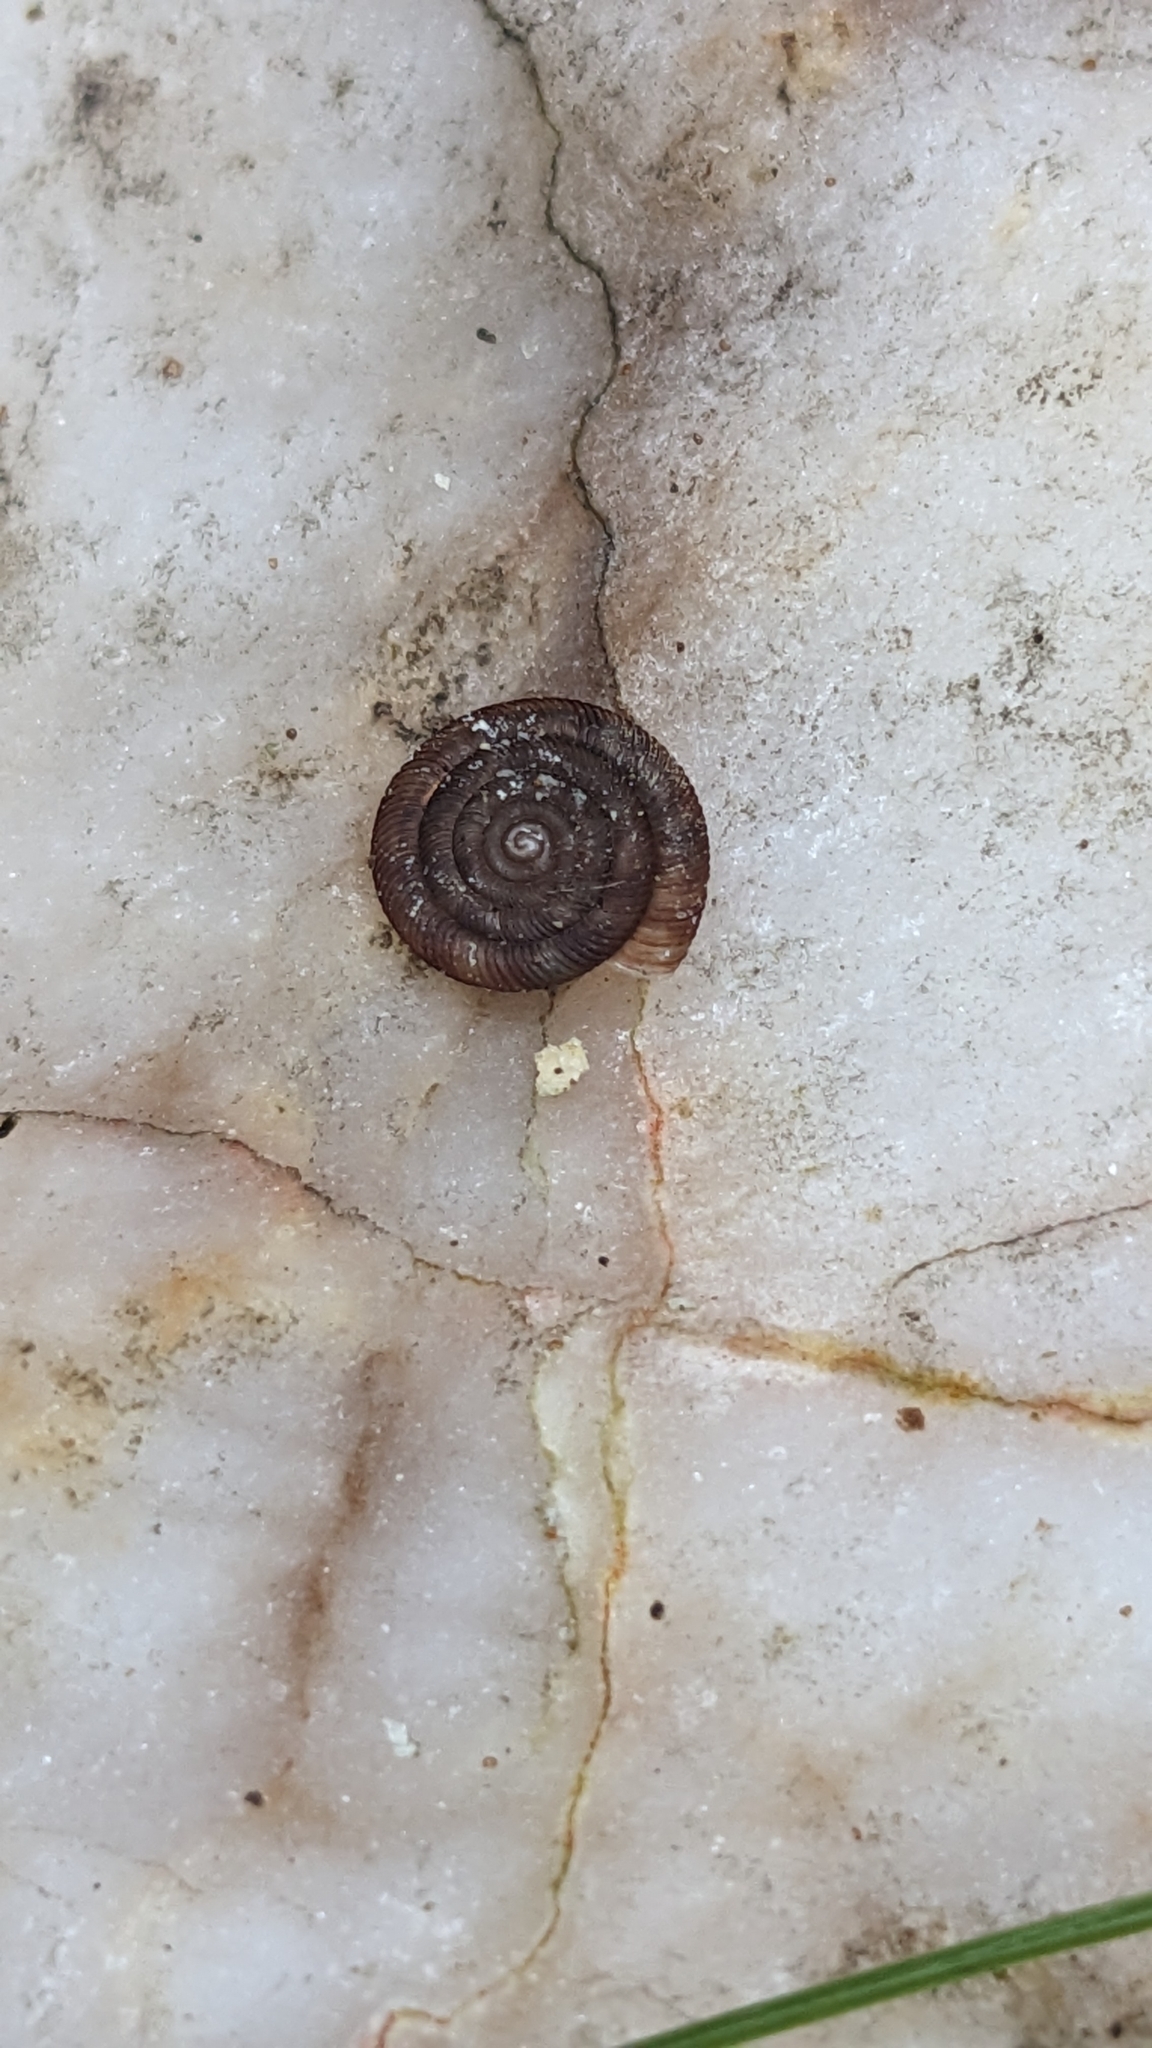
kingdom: Animalia
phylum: Mollusca
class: Gastropoda
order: Stylommatophora
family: Discidae
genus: Discus
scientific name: Discus rotundatus
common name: Rounded snail
